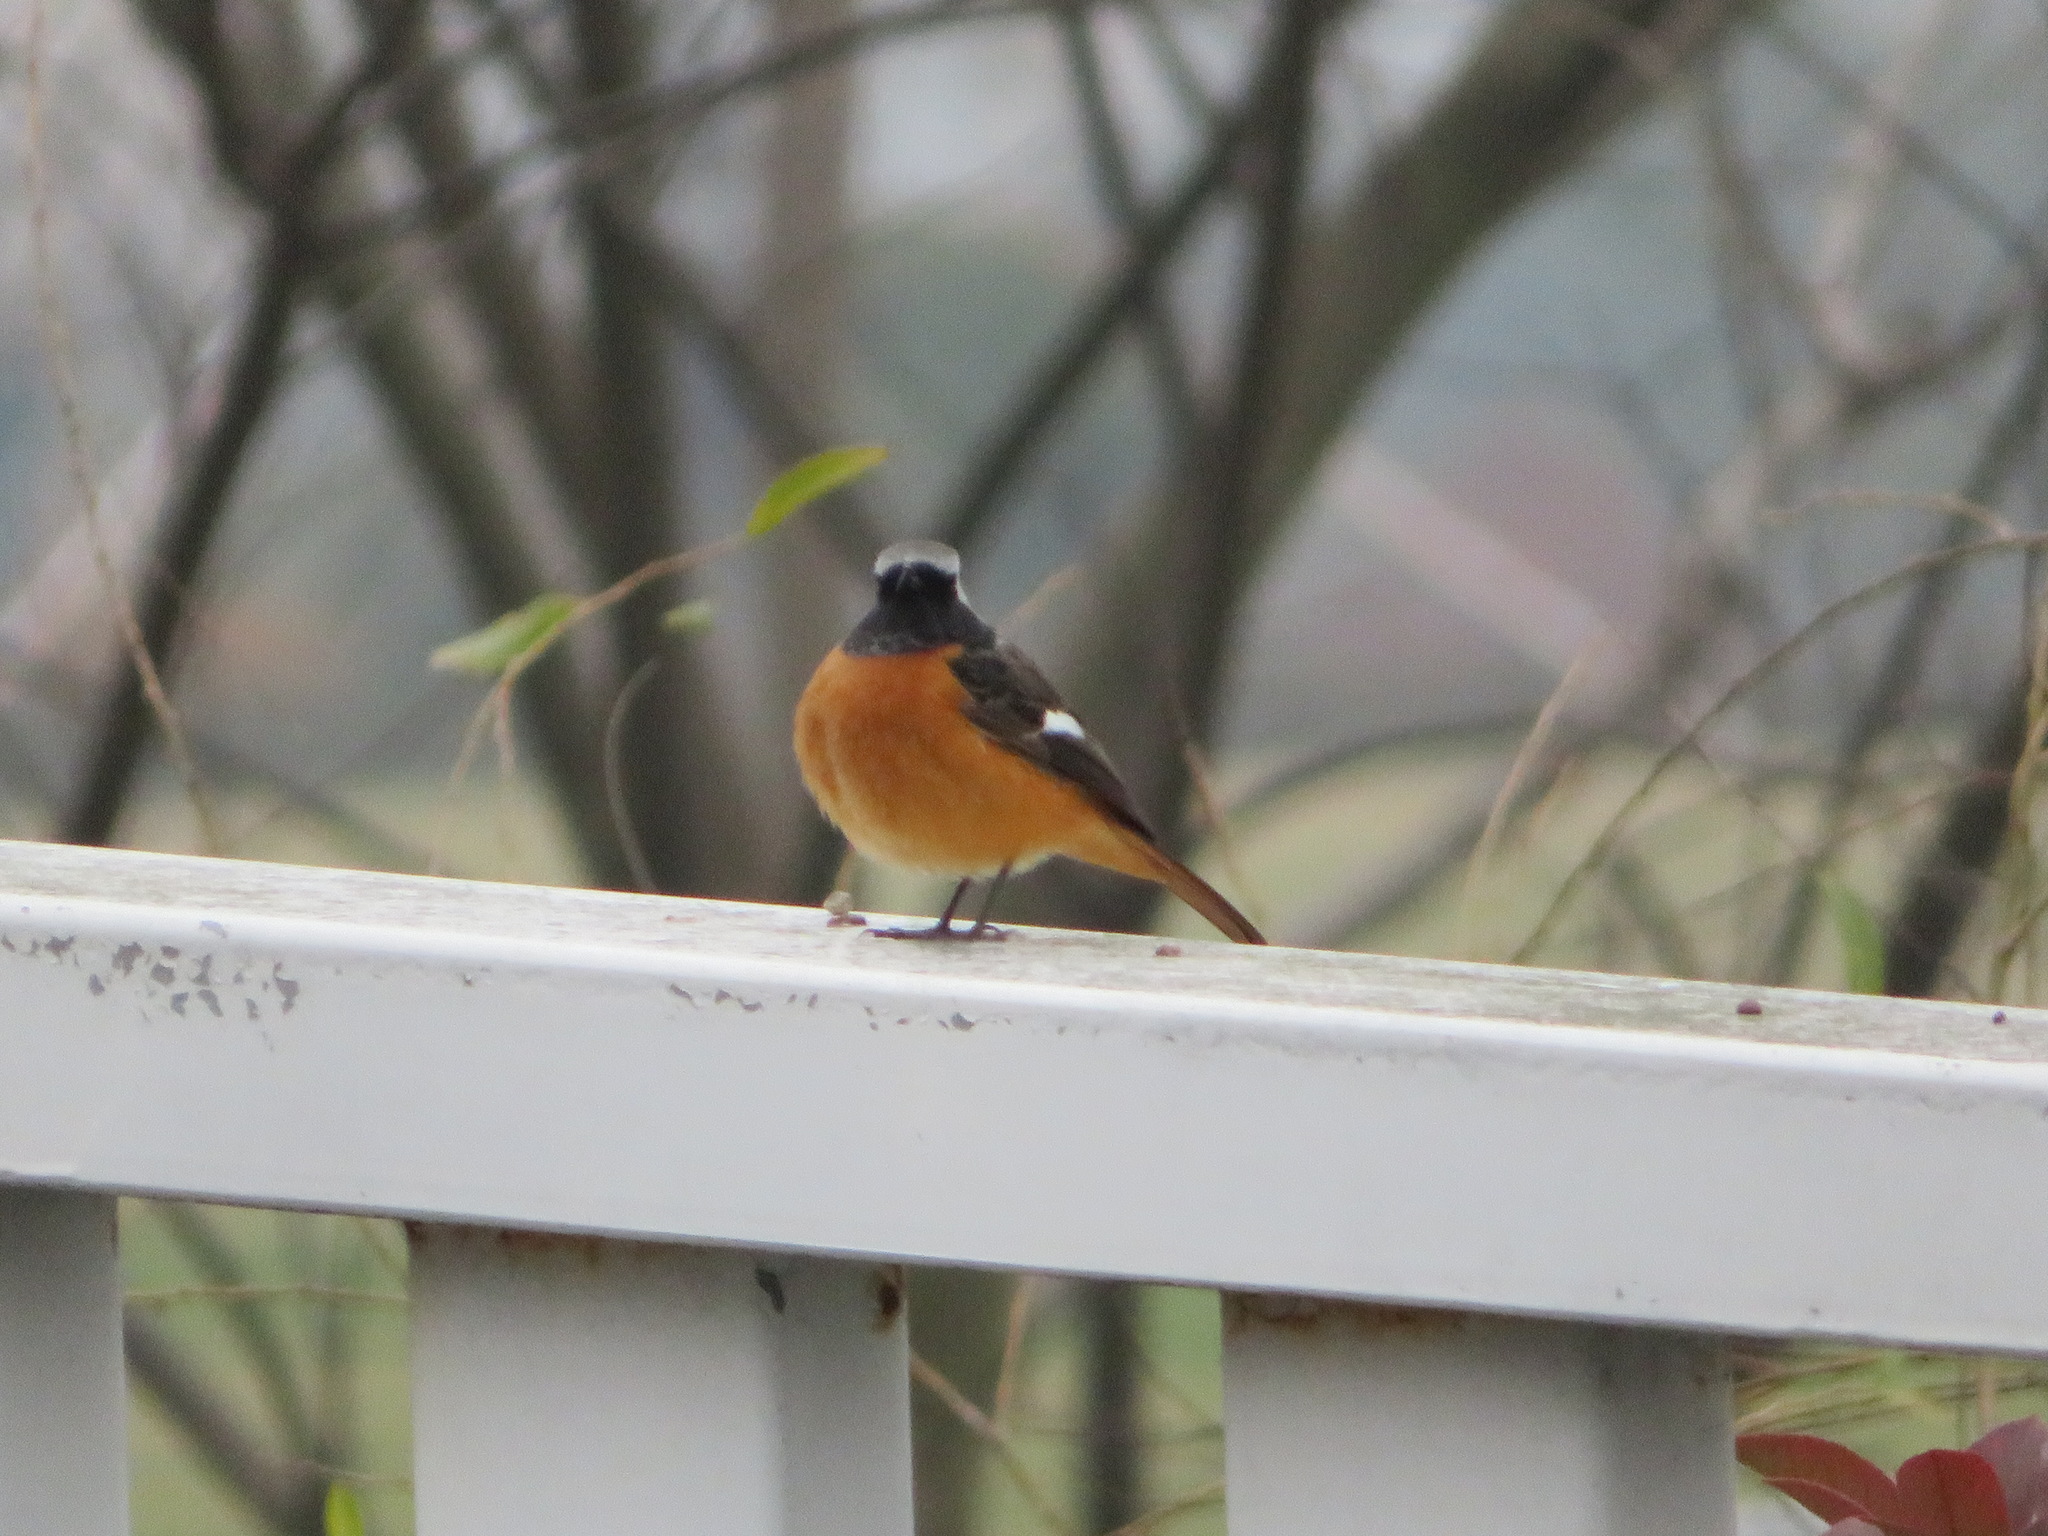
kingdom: Animalia
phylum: Chordata
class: Aves
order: Passeriformes
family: Muscicapidae
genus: Phoenicurus
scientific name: Phoenicurus auroreus
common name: Daurian redstart
